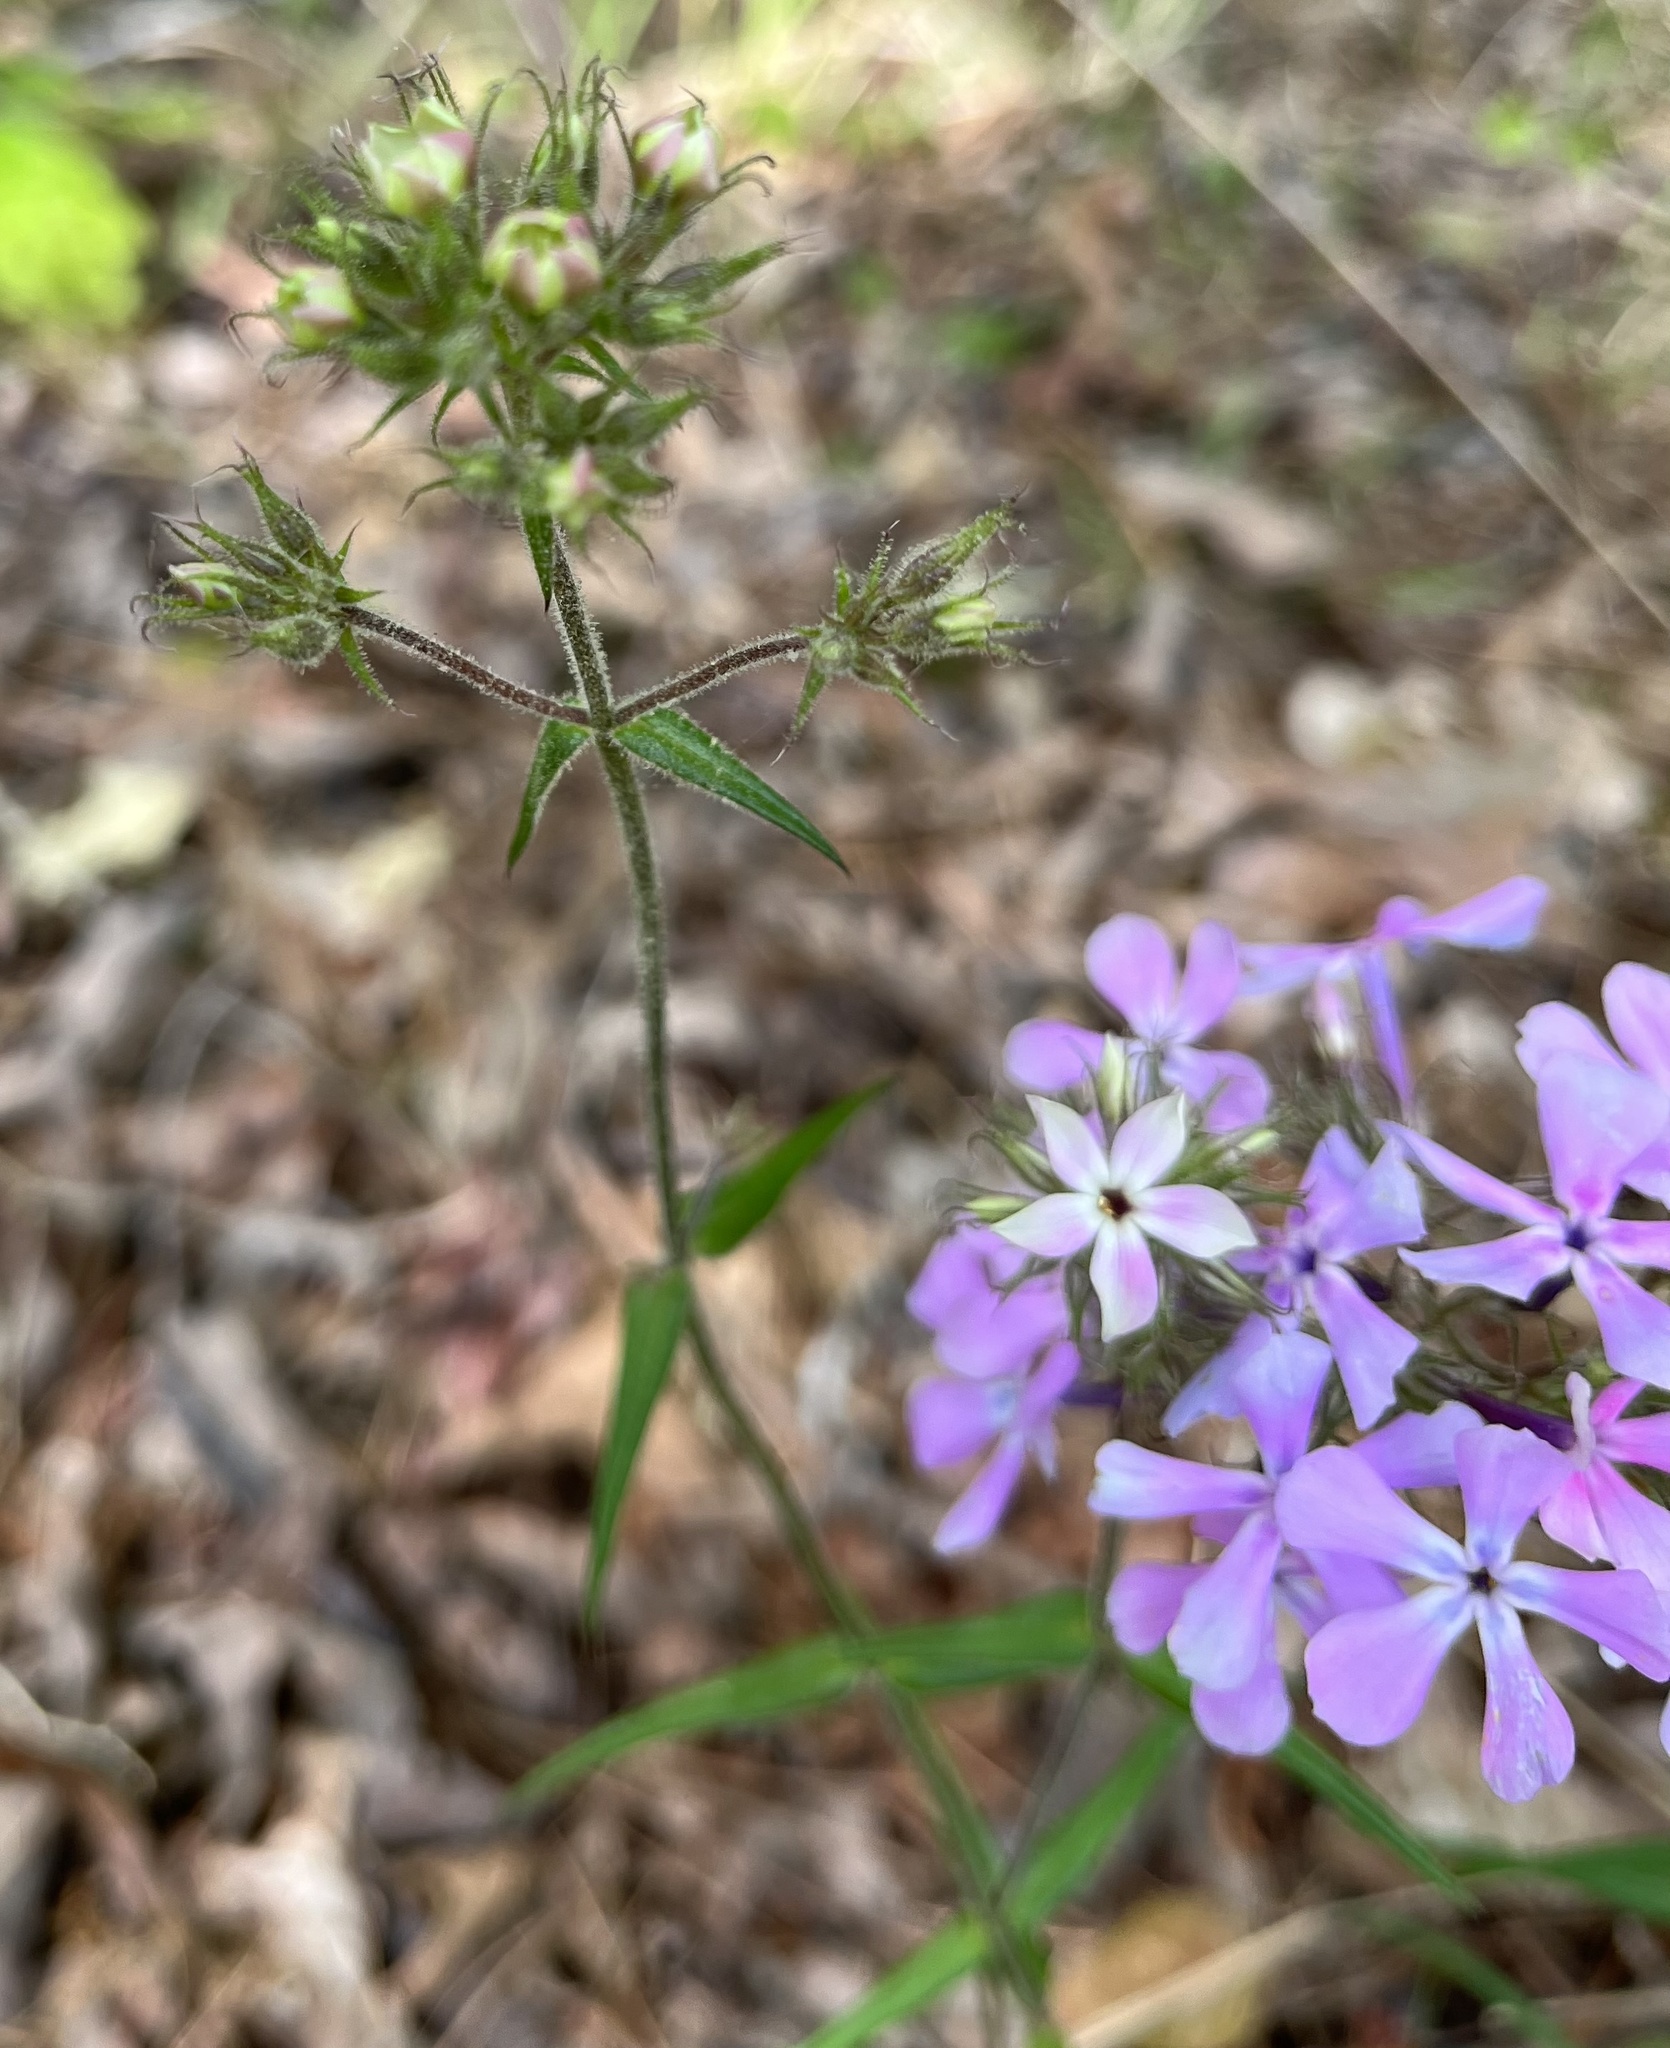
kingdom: Plantae
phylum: Tracheophyta
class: Magnoliopsida
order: Ericales
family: Polemoniaceae
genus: Phlox
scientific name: Phlox pilosa
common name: Prairie phlox
